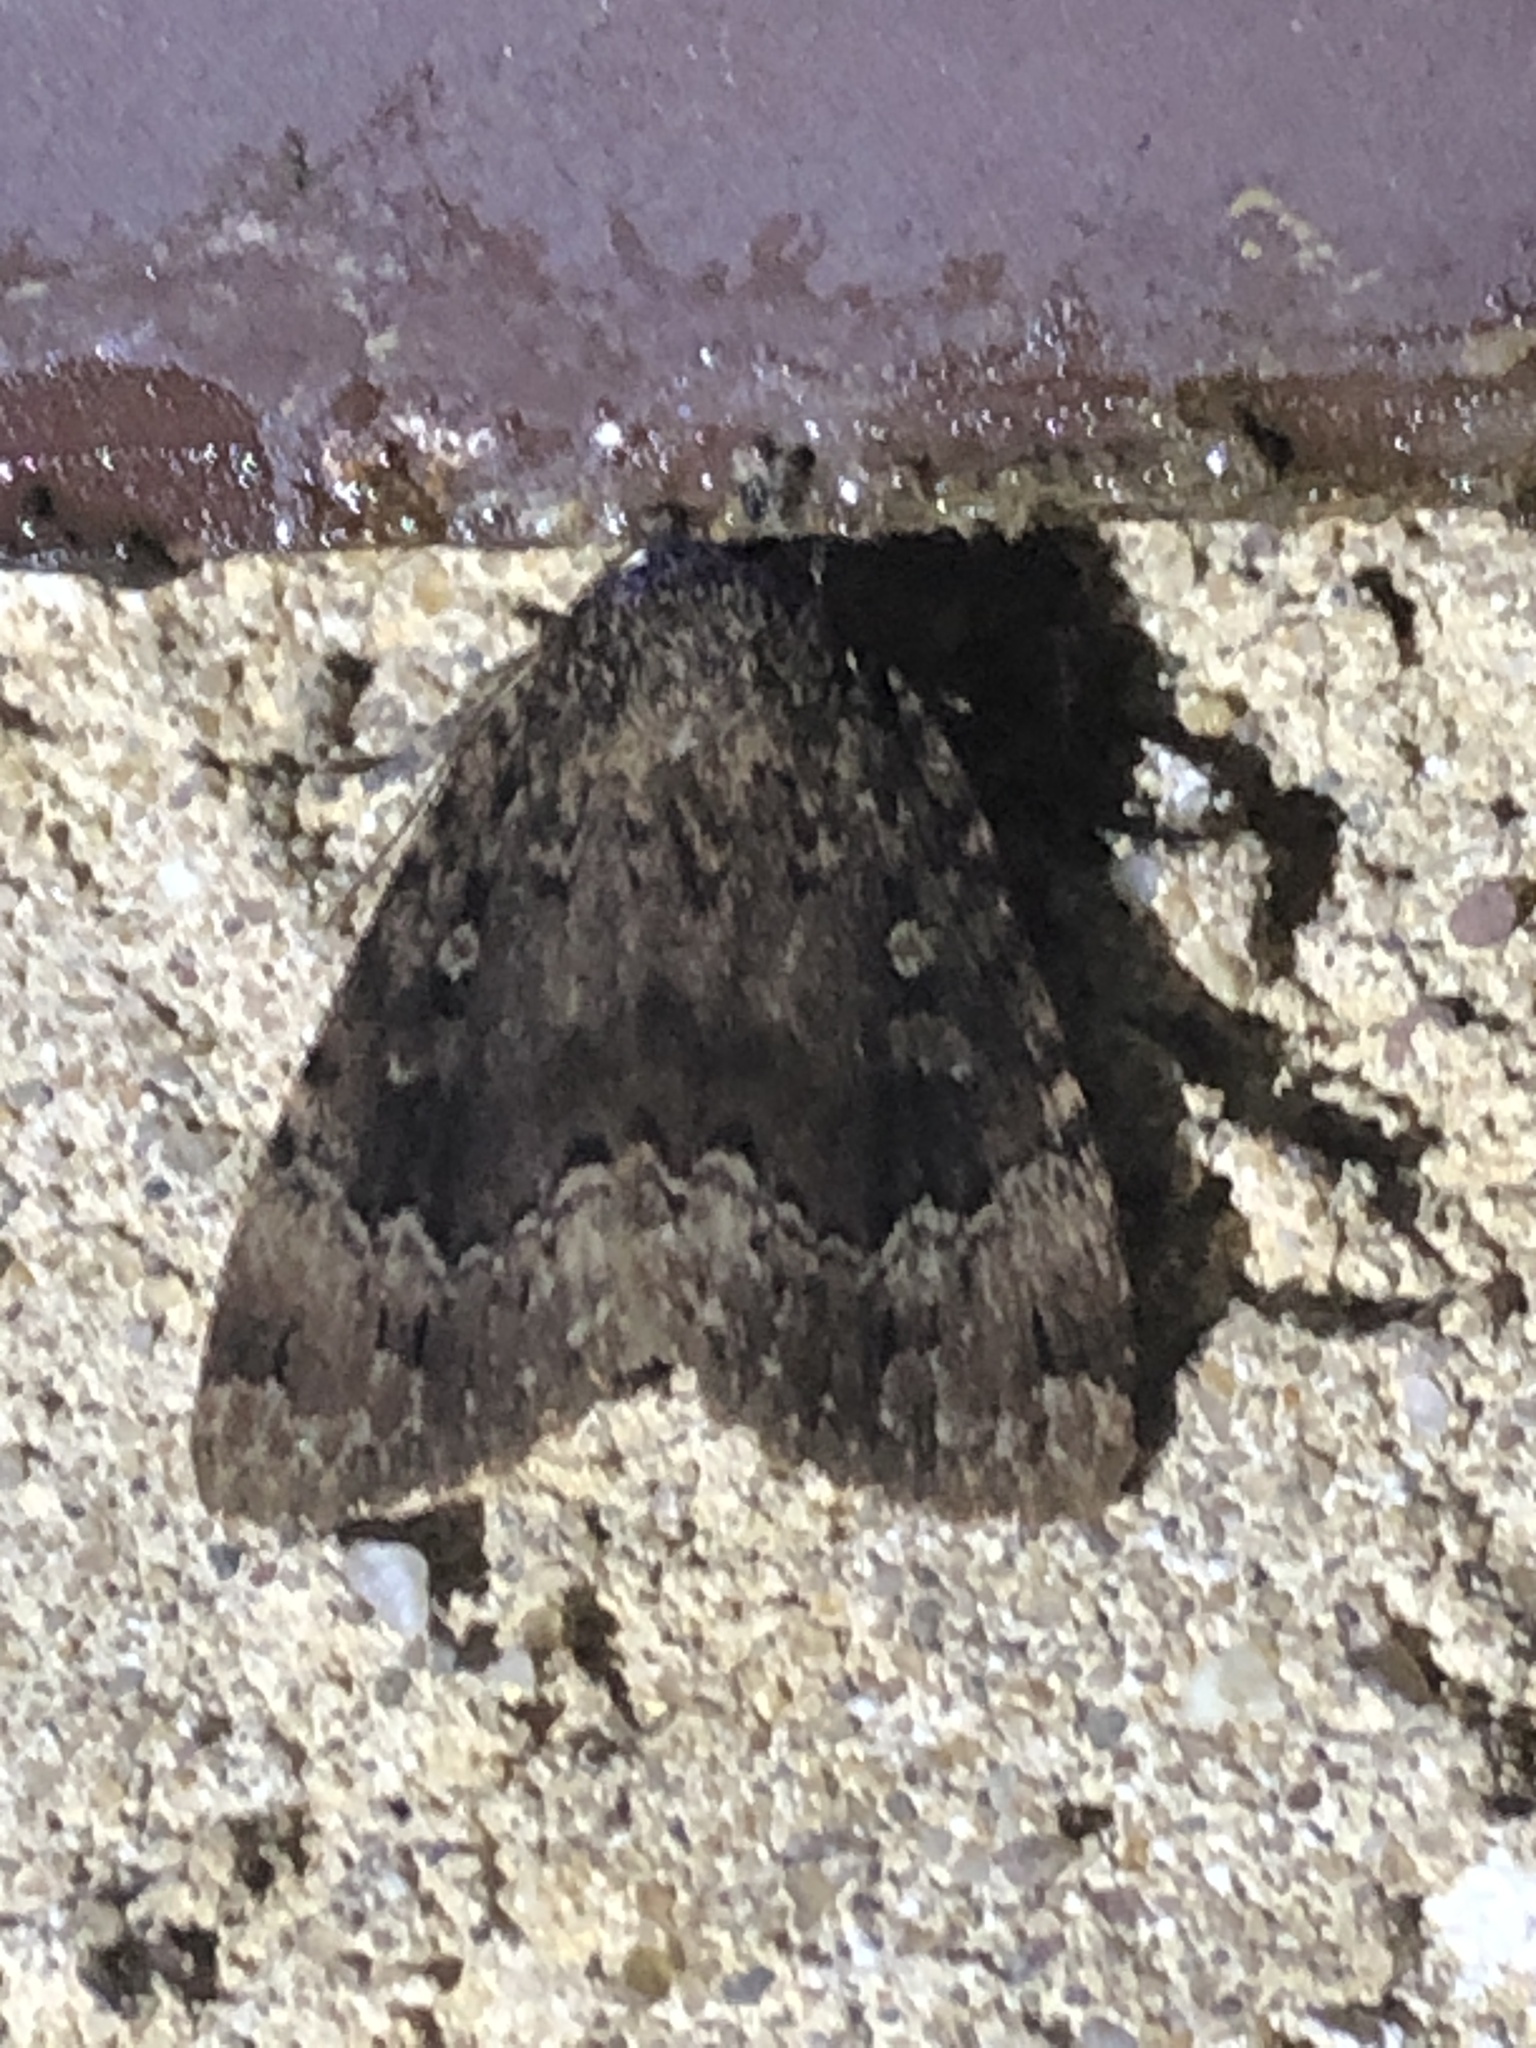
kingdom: Animalia
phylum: Arthropoda
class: Insecta
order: Lepidoptera
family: Noctuidae
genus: Amphipyra
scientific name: Amphipyra pyramidoides
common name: American copper underwing
